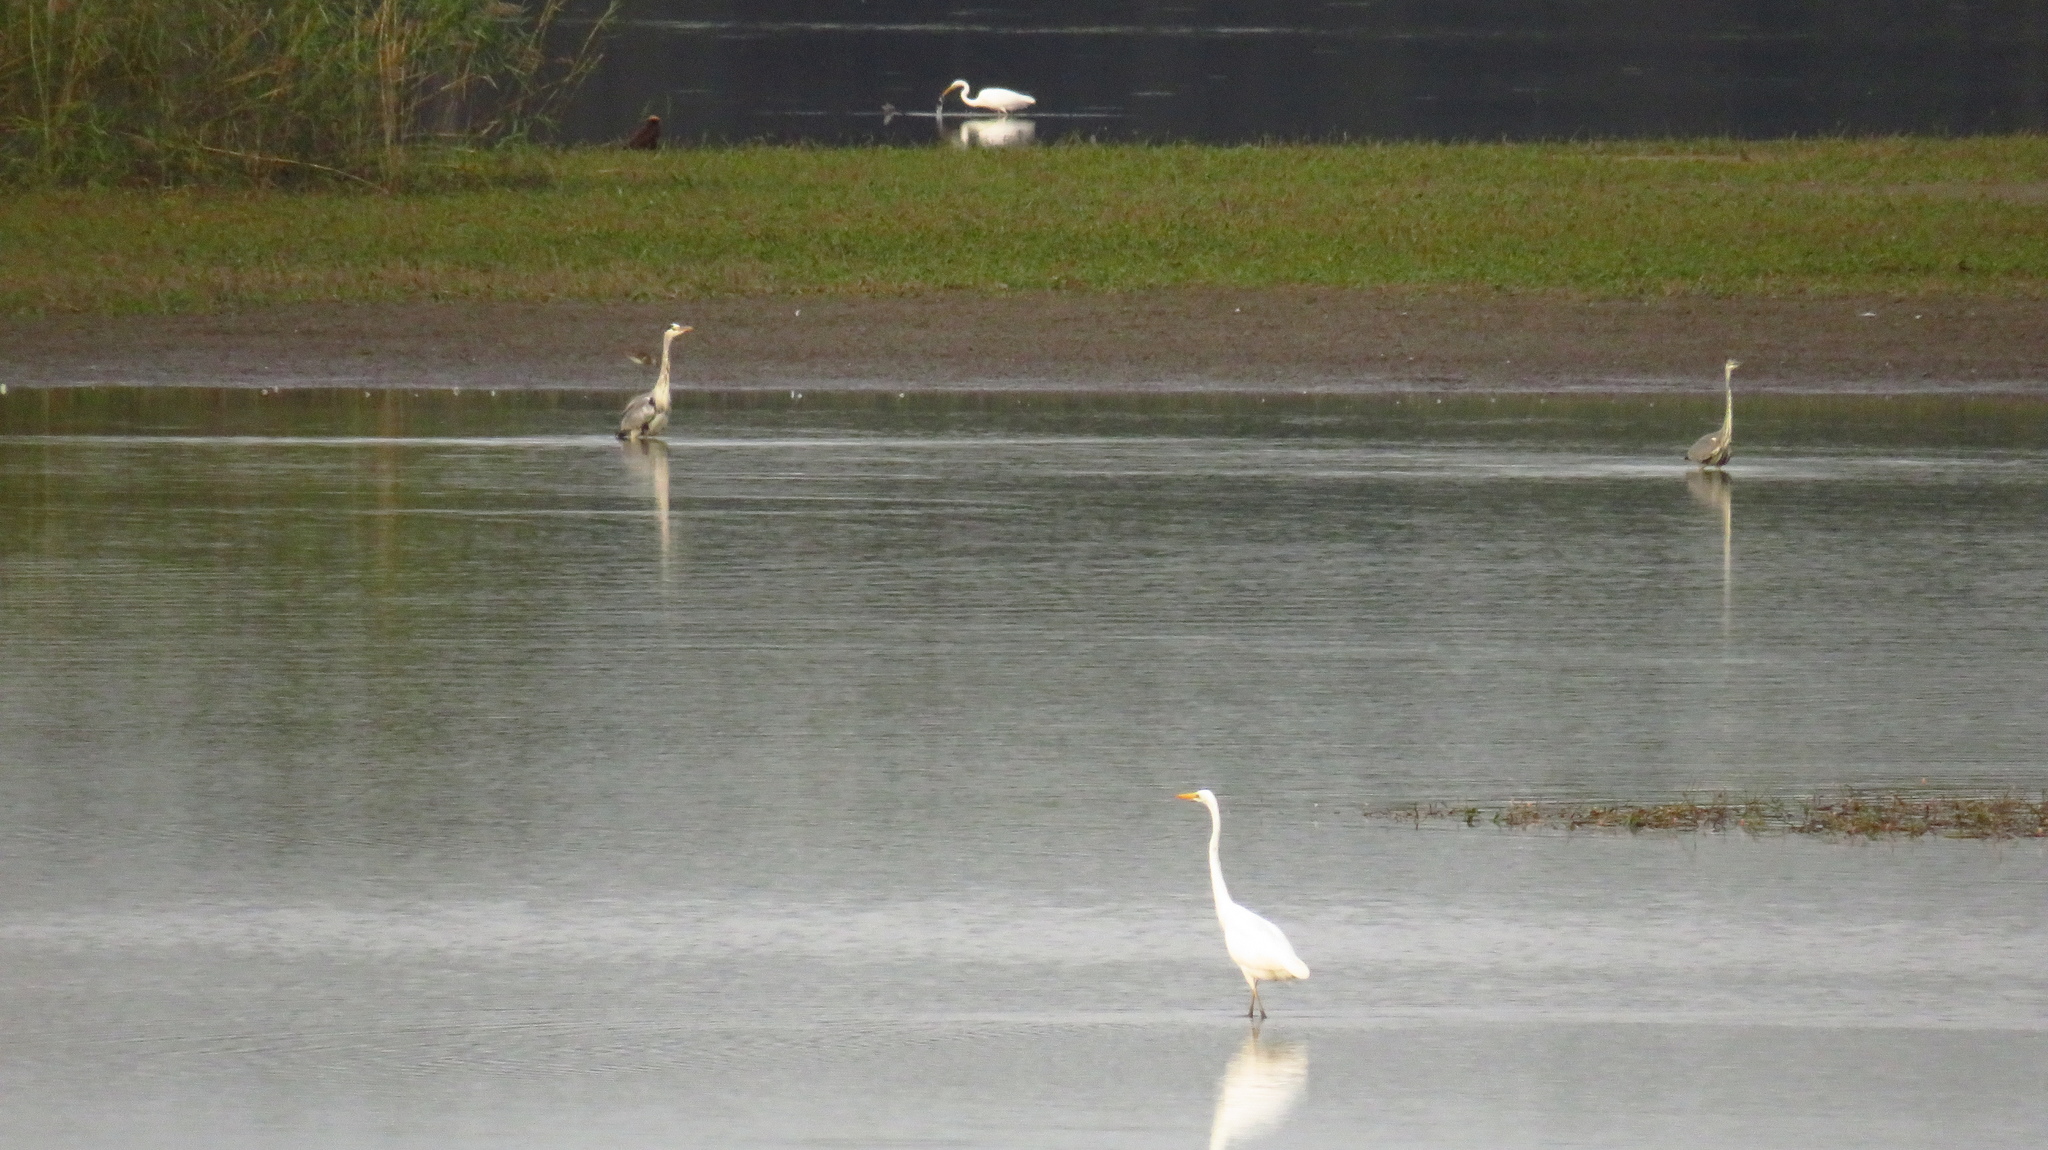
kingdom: Animalia
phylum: Chordata
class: Aves
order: Pelecaniformes
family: Ardeidae
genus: Ardea
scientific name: Ardea cinerea
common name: Grey heron
